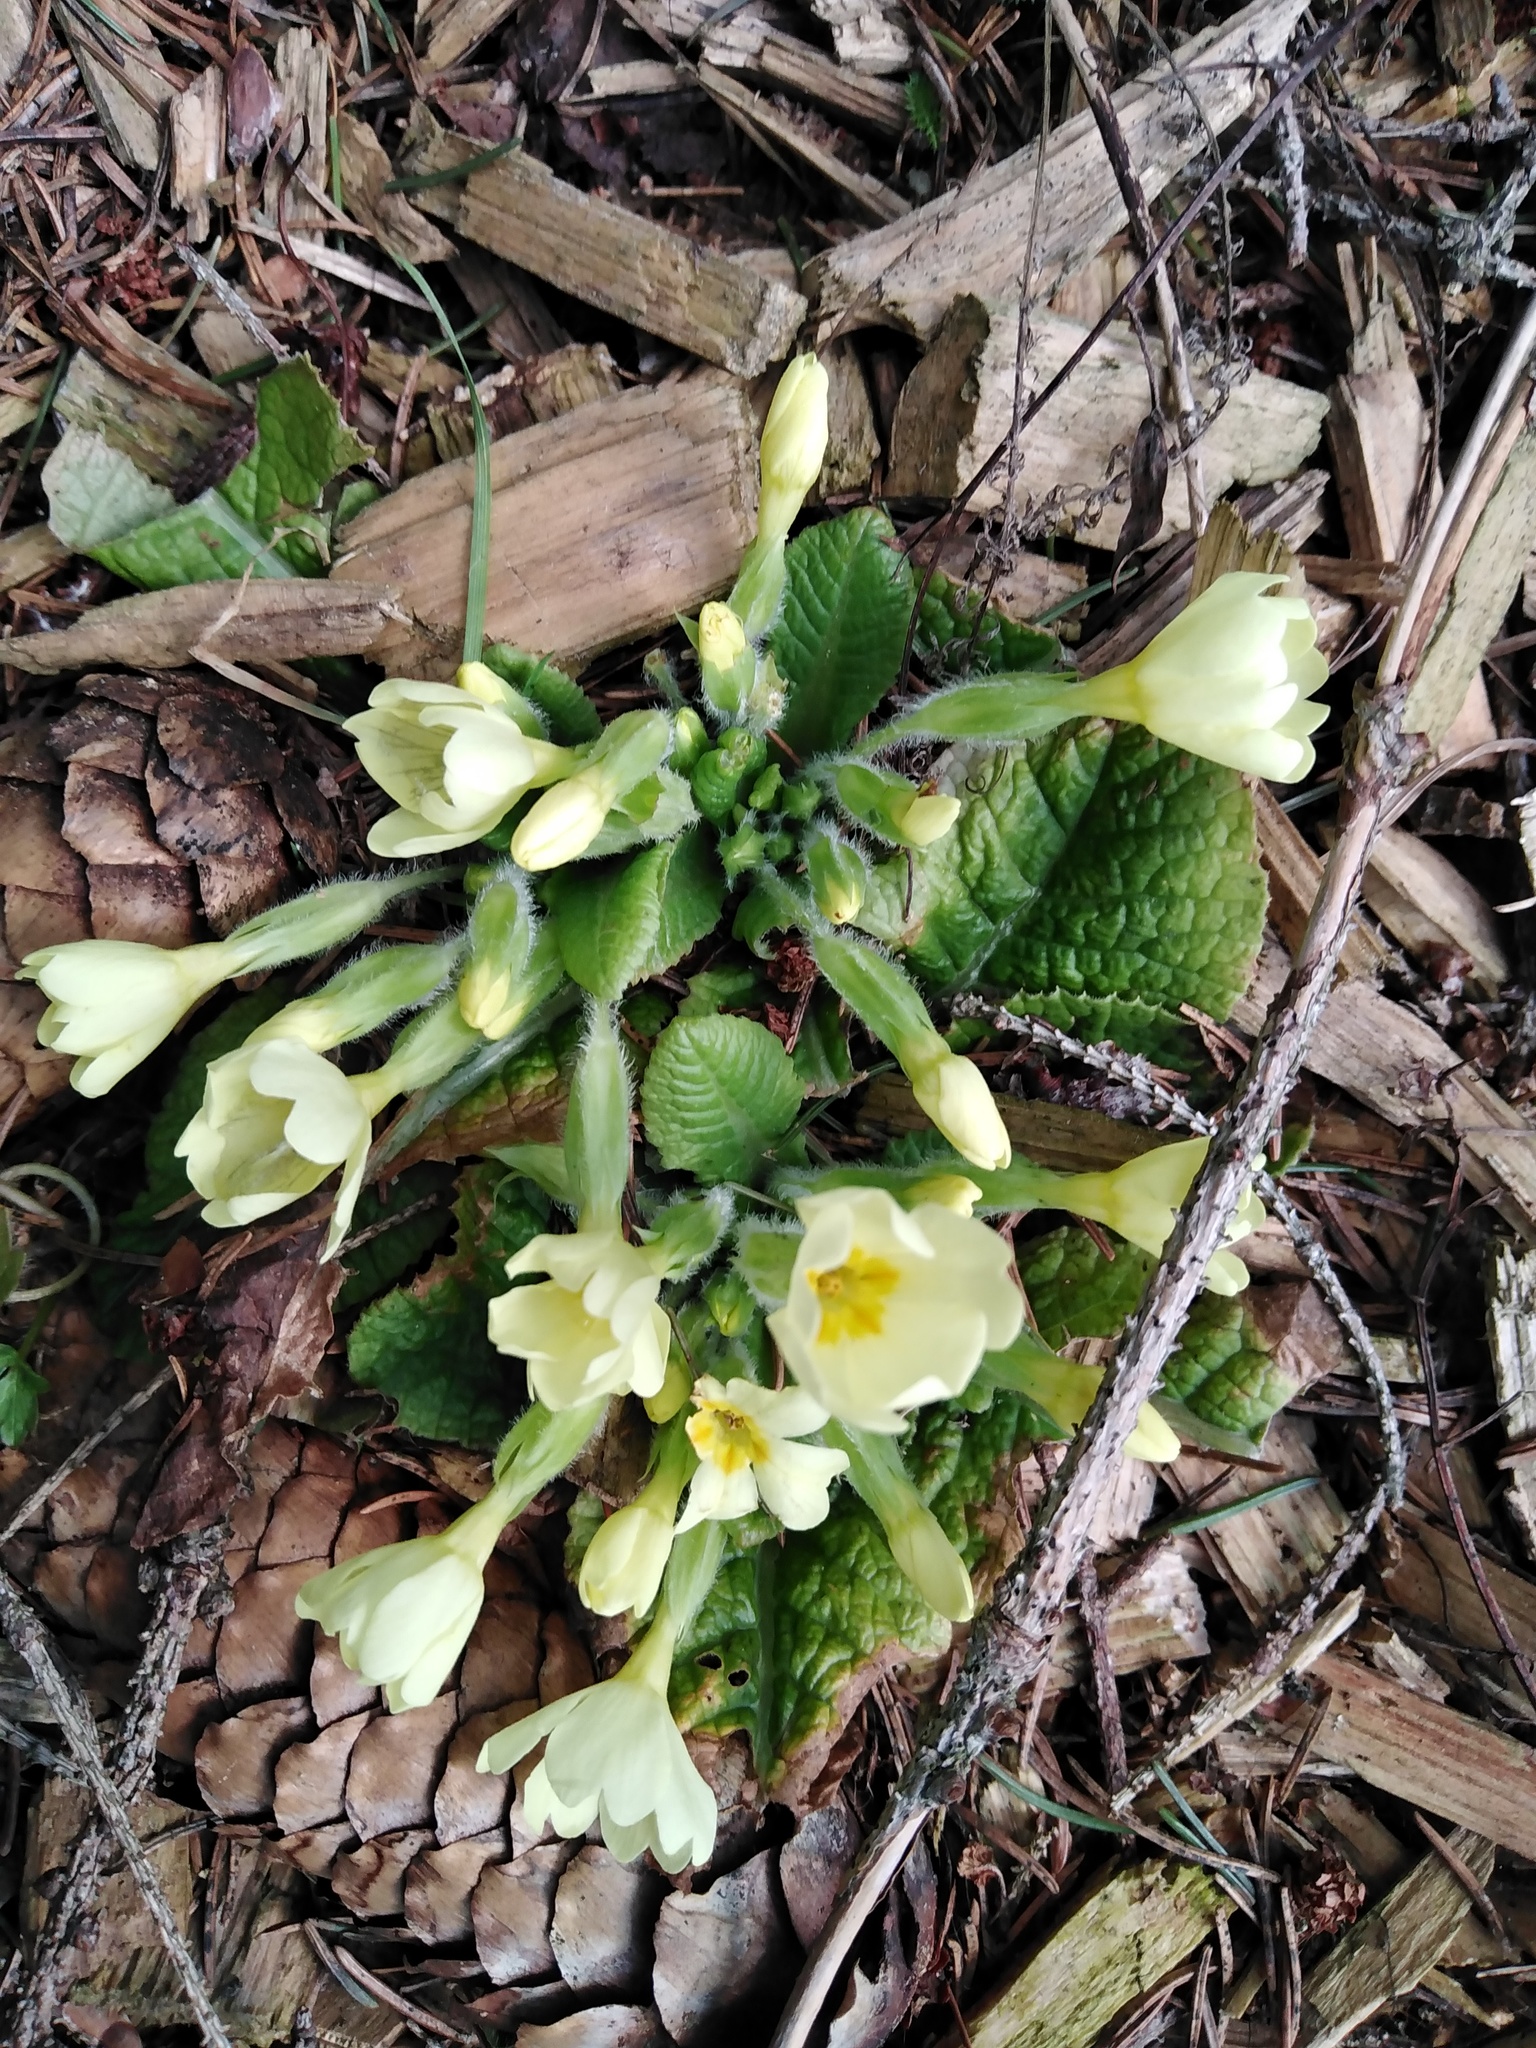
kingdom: Plantae
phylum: Tracheophyta
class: Magnoliopsida
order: Ericales
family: Primulaceae
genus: Primula
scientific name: Primula vulgaris
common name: Primrose
